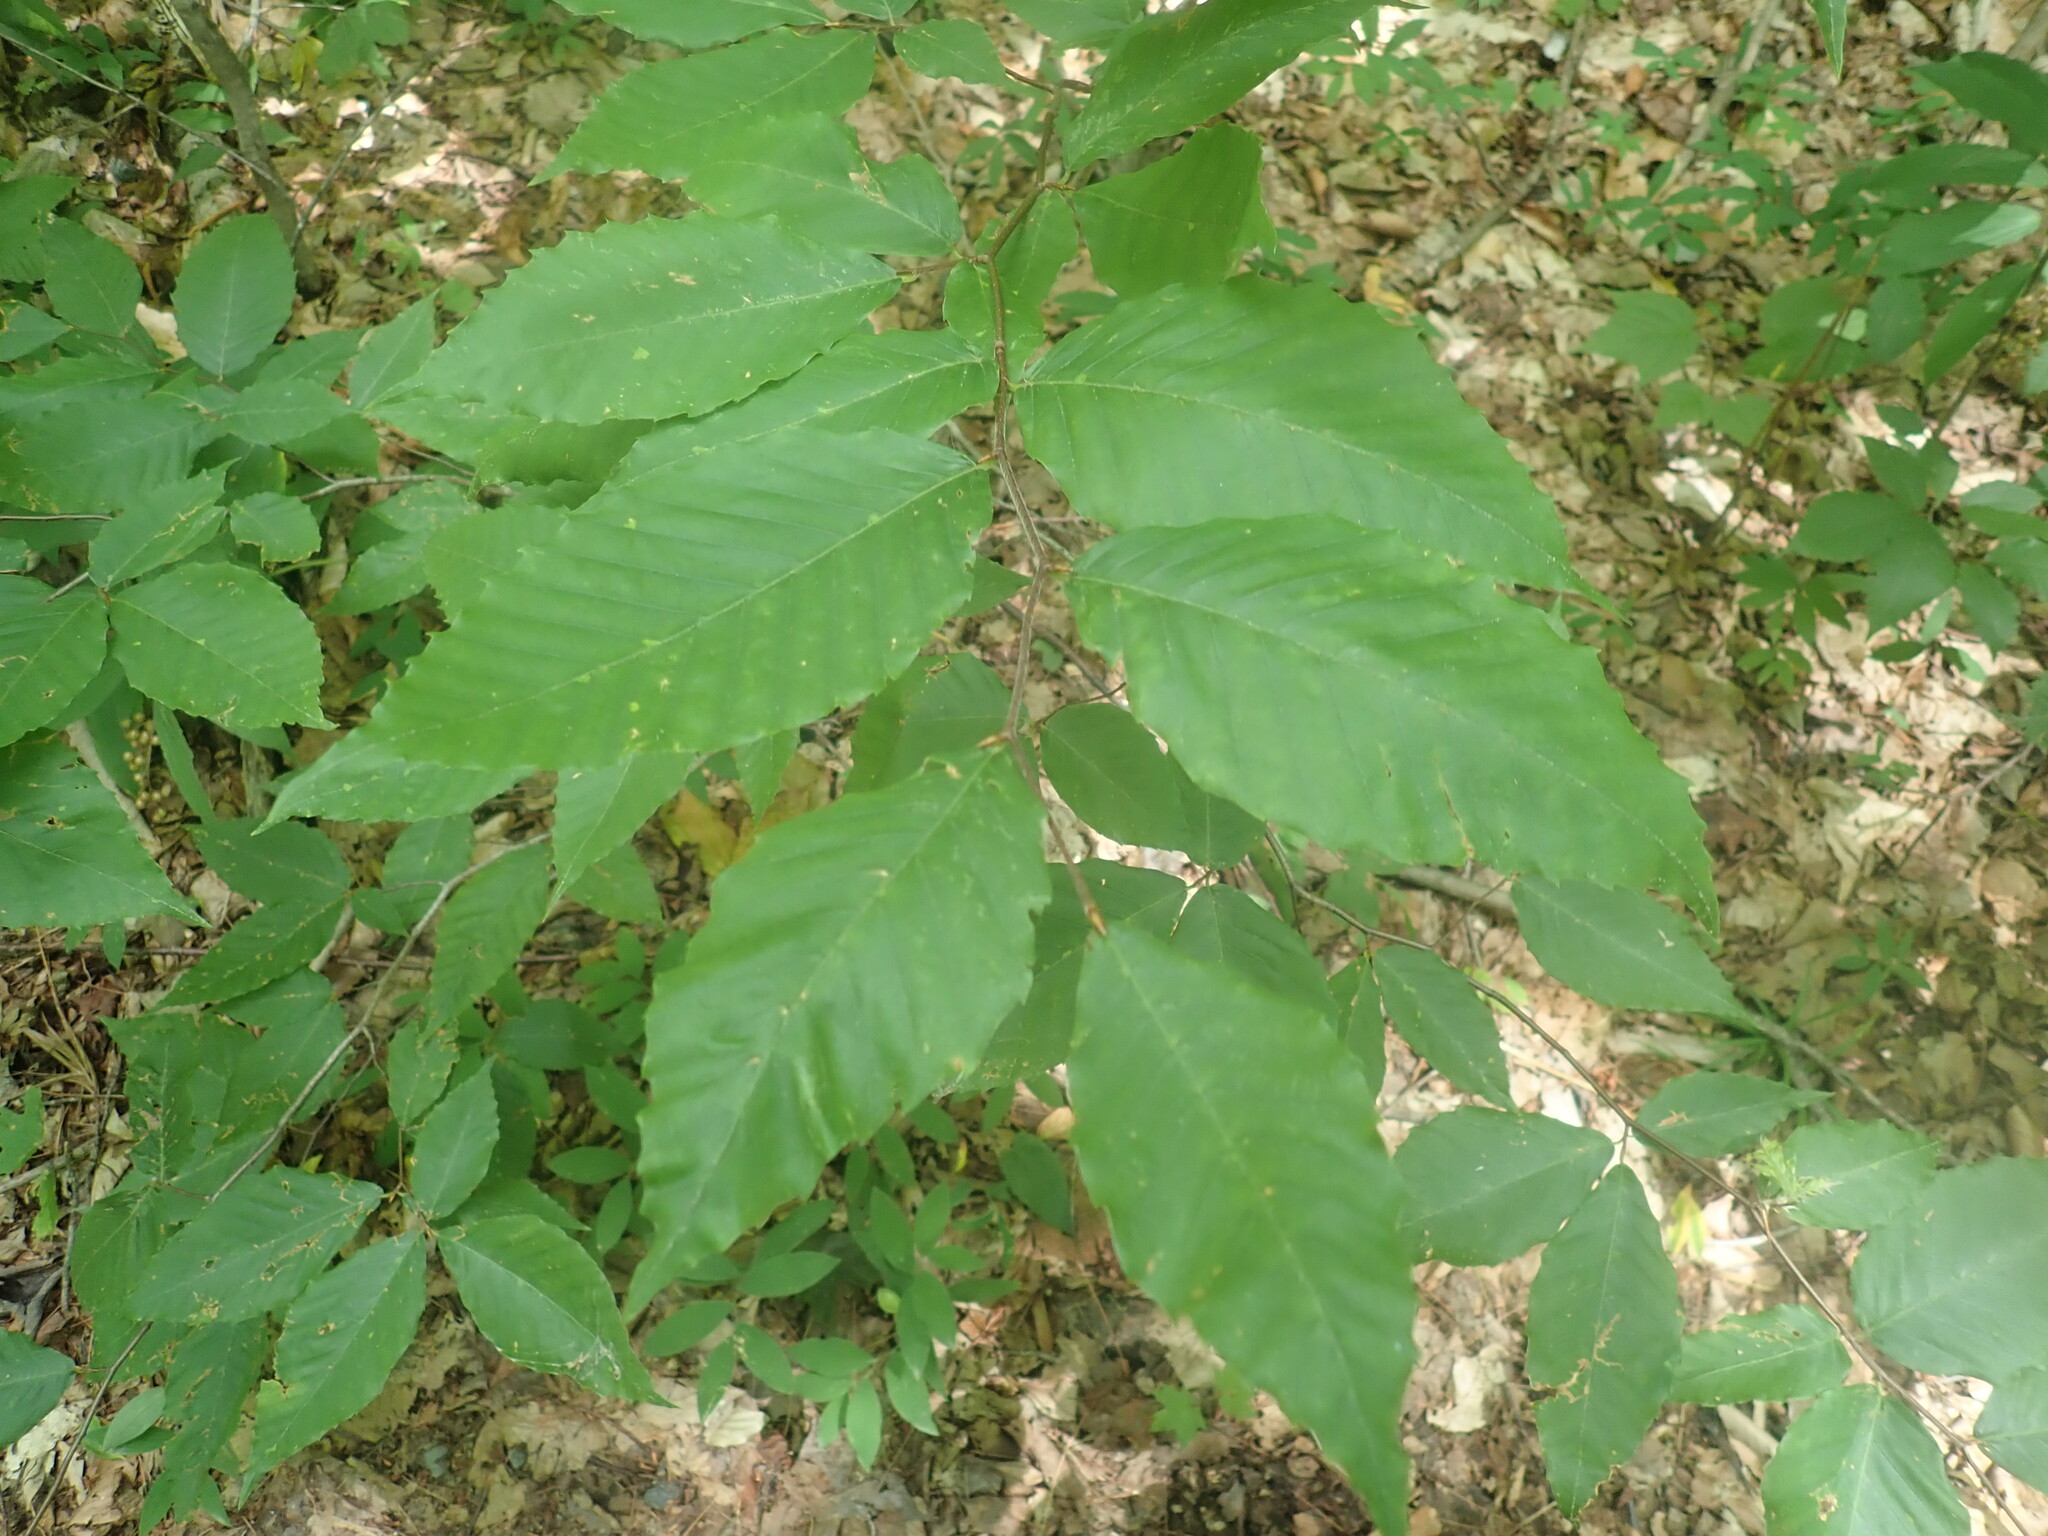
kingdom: Plantae
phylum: Tracheophyta
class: Magnoliopsida
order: Fagales
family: Fagaceae
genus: Fagus
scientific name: Fagus grandifolia
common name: American beech
